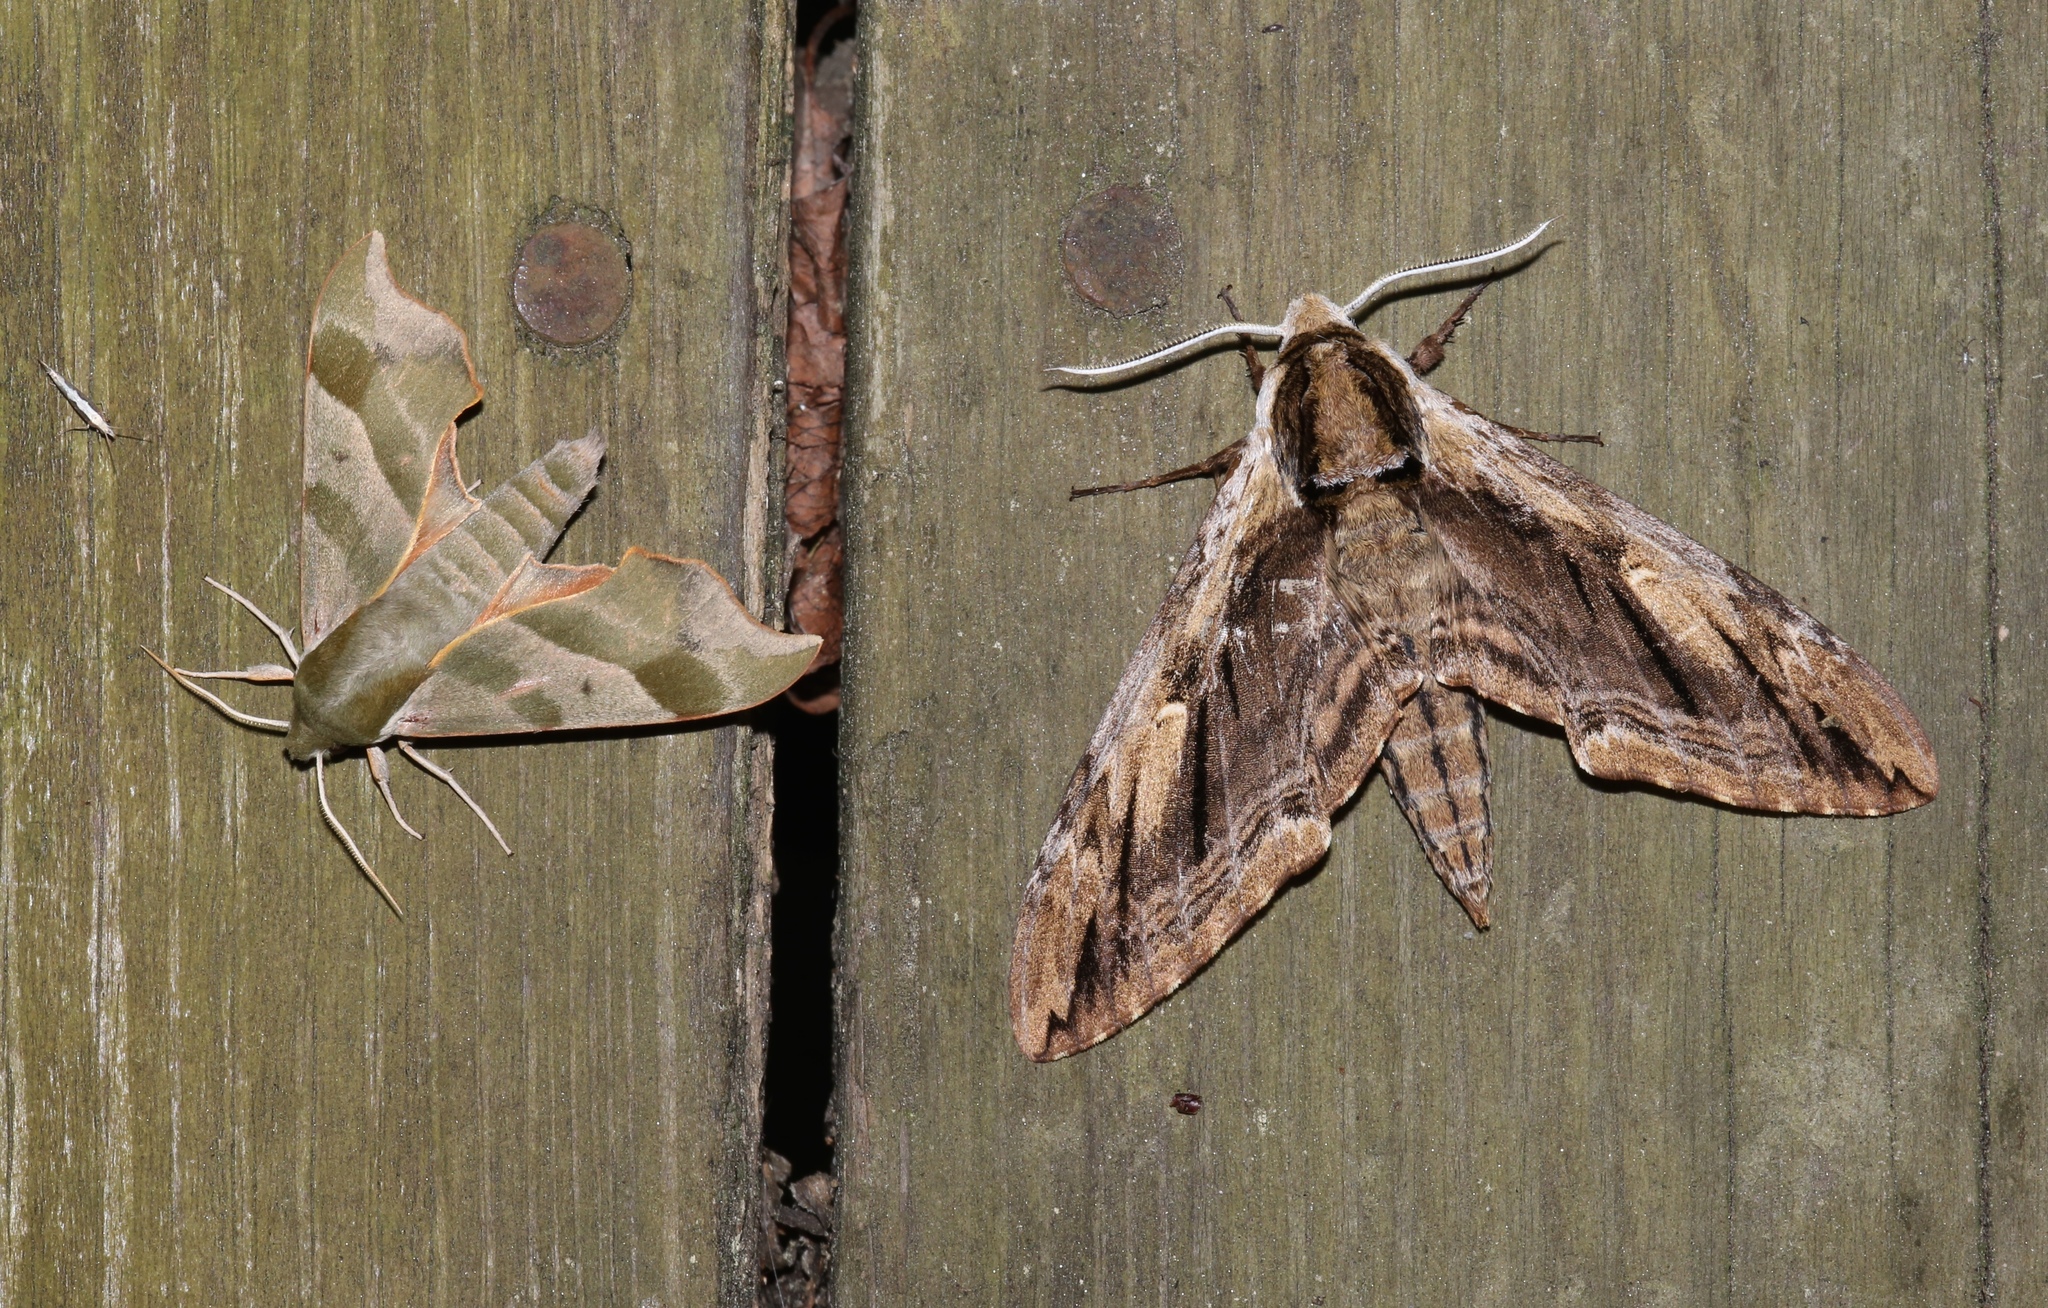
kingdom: Animalia
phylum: Arthropoda
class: Insecta
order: Lepidoptera
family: Sphingidae
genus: Ceratomia
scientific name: Ceratomia amyntor
